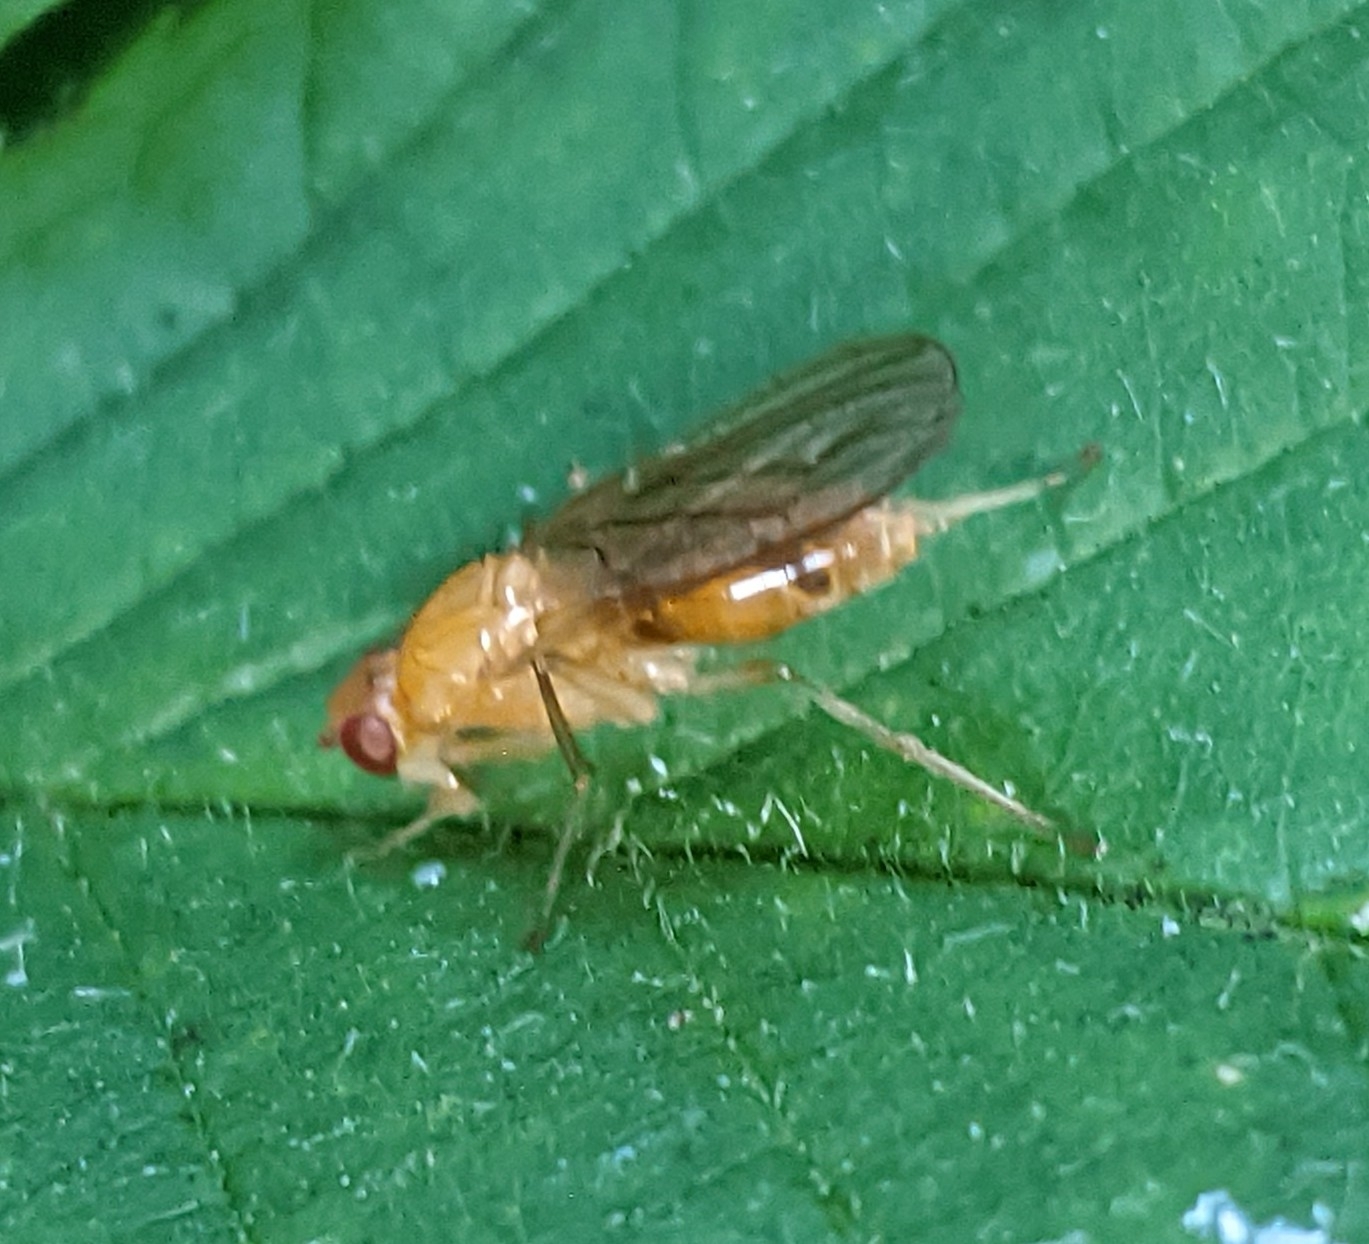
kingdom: Animalia
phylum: Arthropoda
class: Insecta
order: Diptera
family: Psilidae
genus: Psila
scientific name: Psila fimetaria
